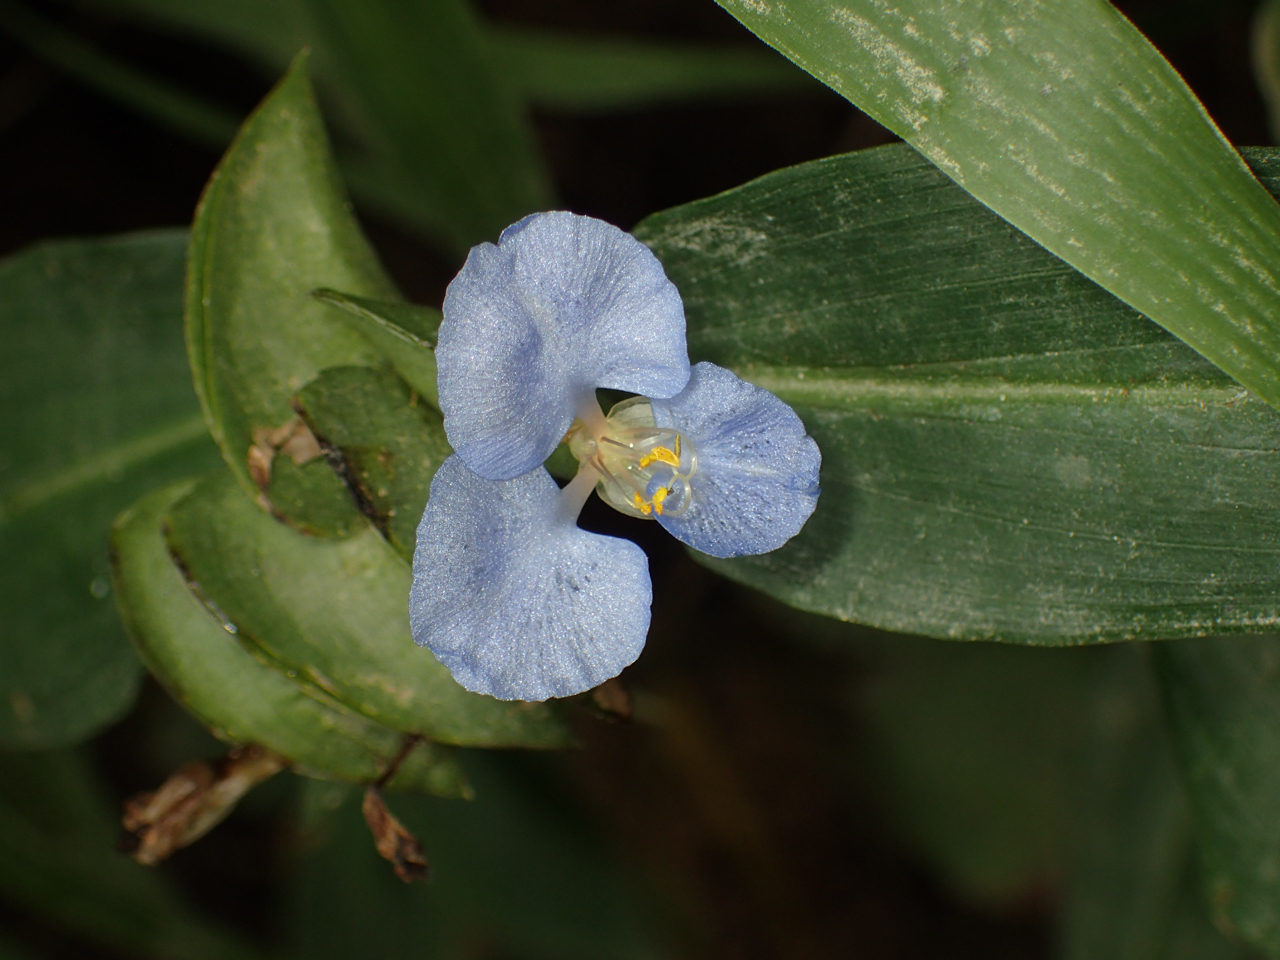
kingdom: Plantae
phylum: Tracheophyta
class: Liliopsida
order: Commelinales
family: Commelinaceae
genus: Commelina
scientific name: Commelina virginica
